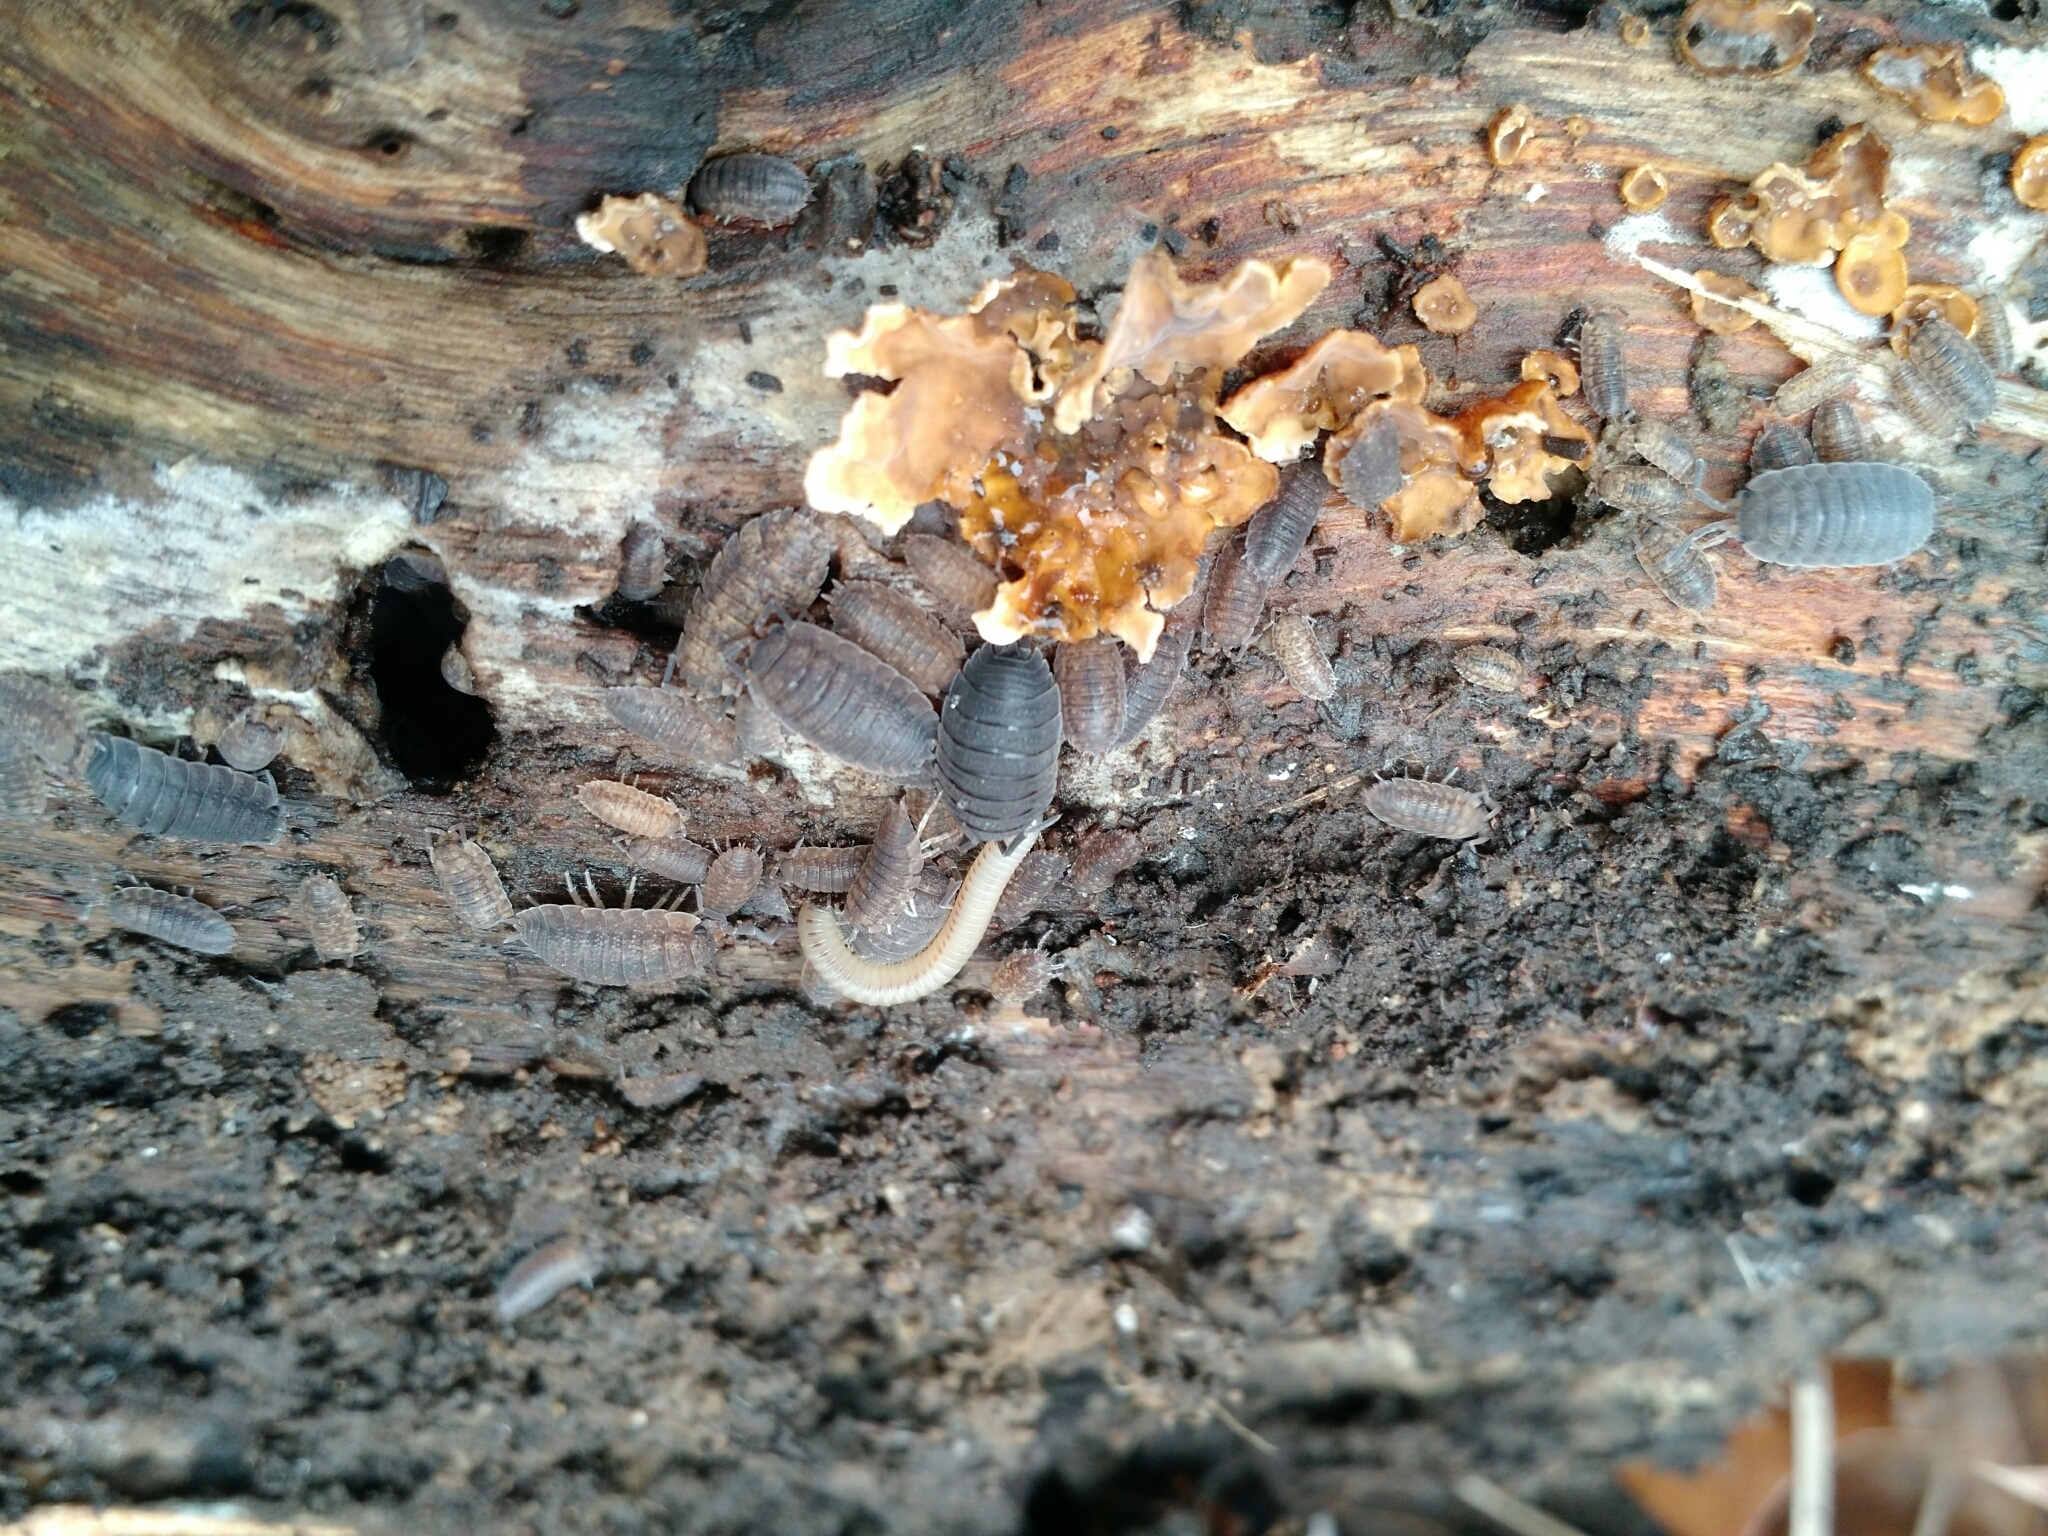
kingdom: Animalia
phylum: Arthropoda
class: Malacostraca
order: Isopoda
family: Porcellionidae
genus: Porcellio
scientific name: Porcellio scaber
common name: Common rough woodlouse
